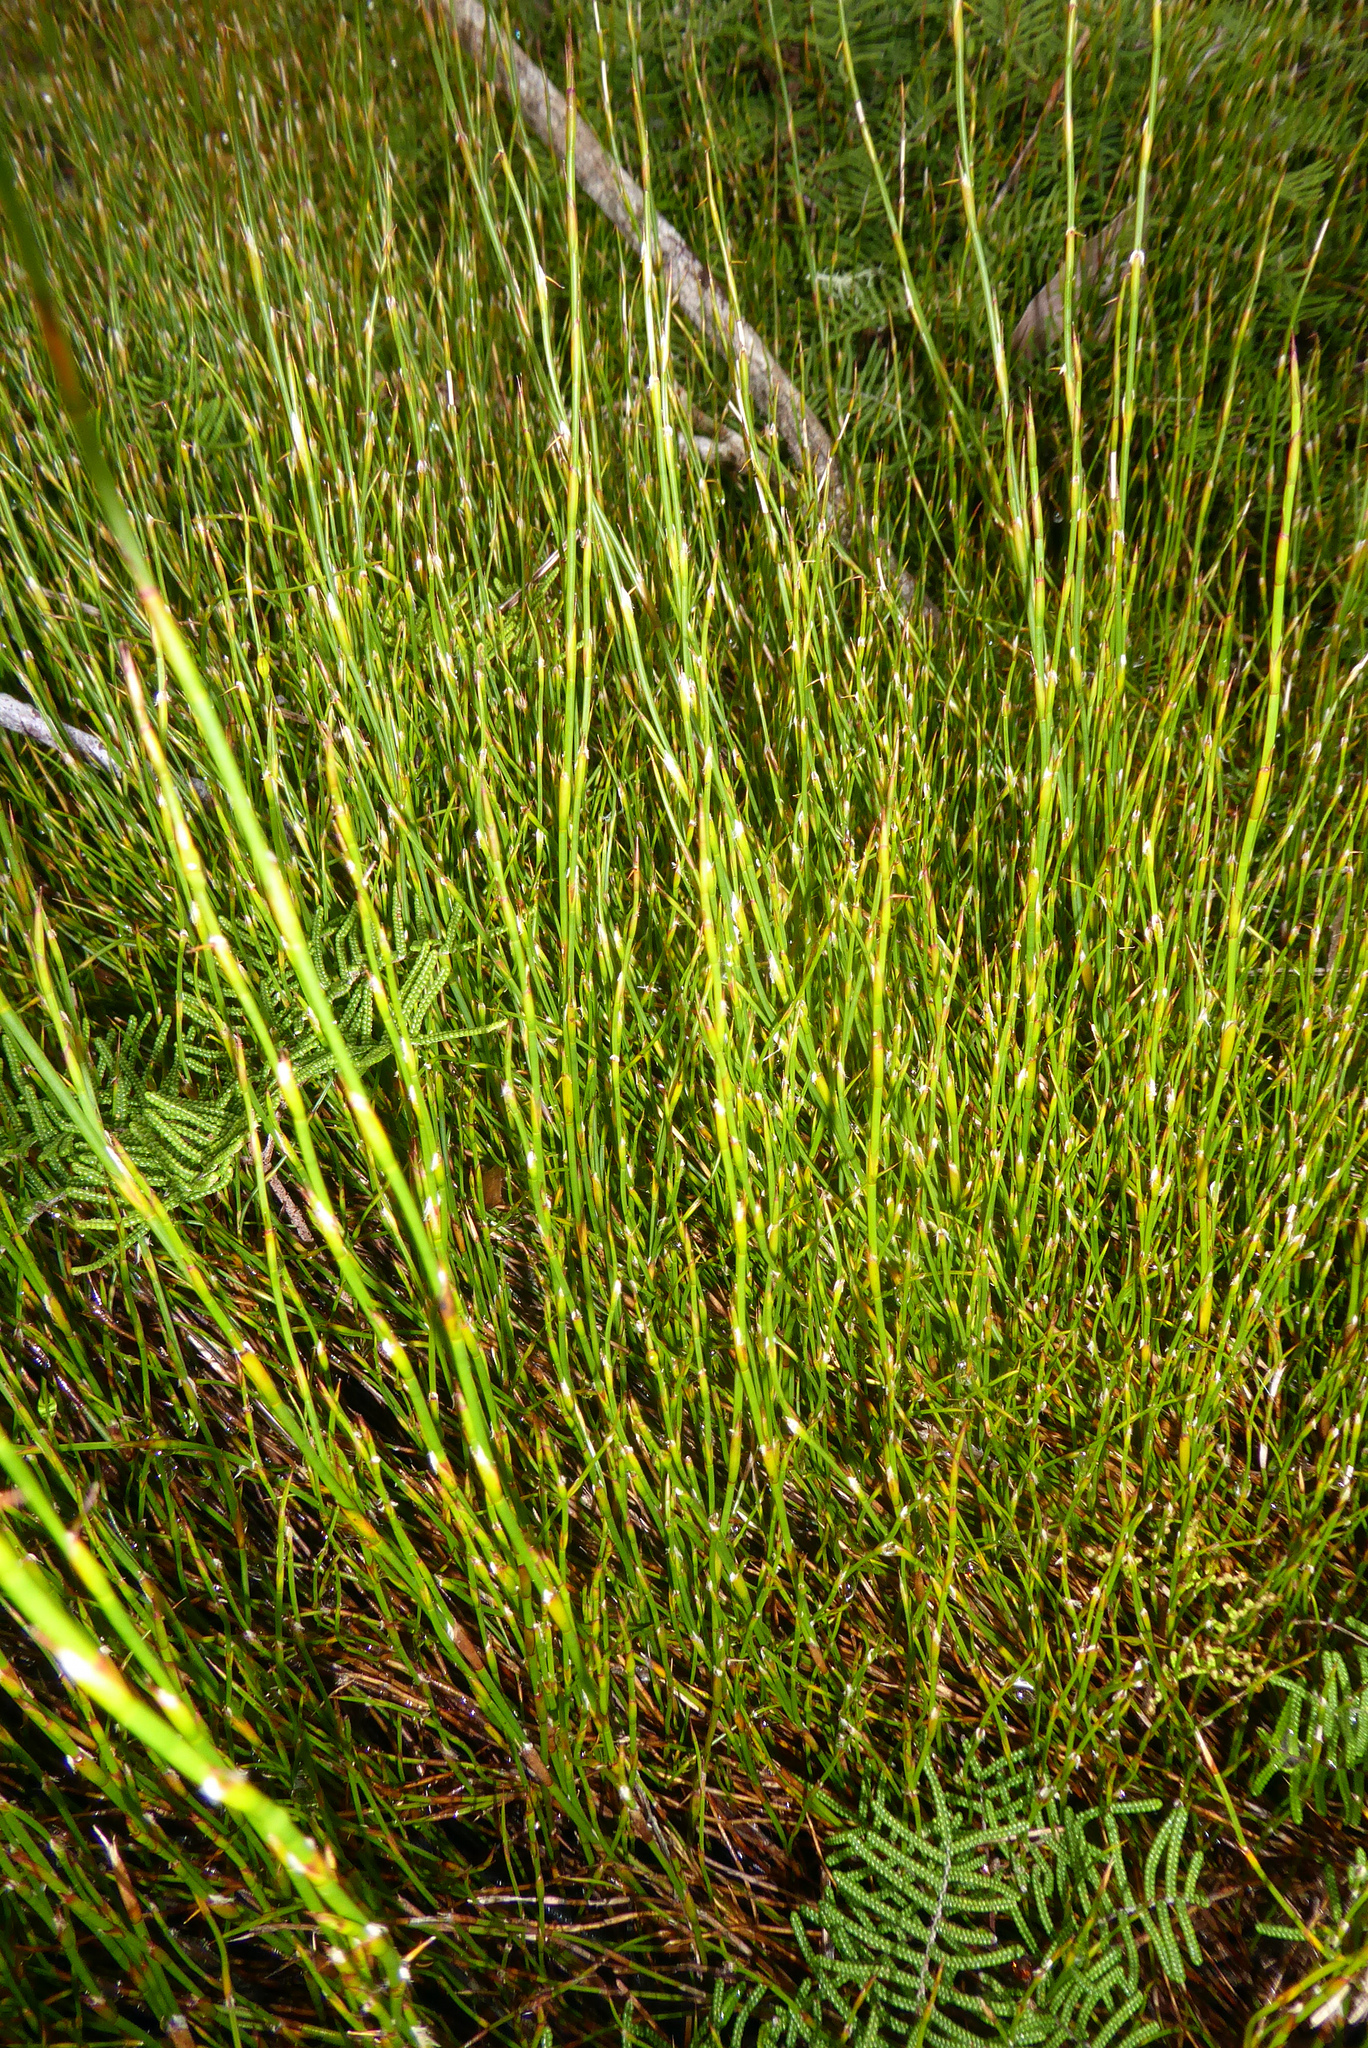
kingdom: Plantae
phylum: Tracheophyta
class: Liliopsida
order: Poales
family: Restionaceae
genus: Empodisma
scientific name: Empodisma minus
